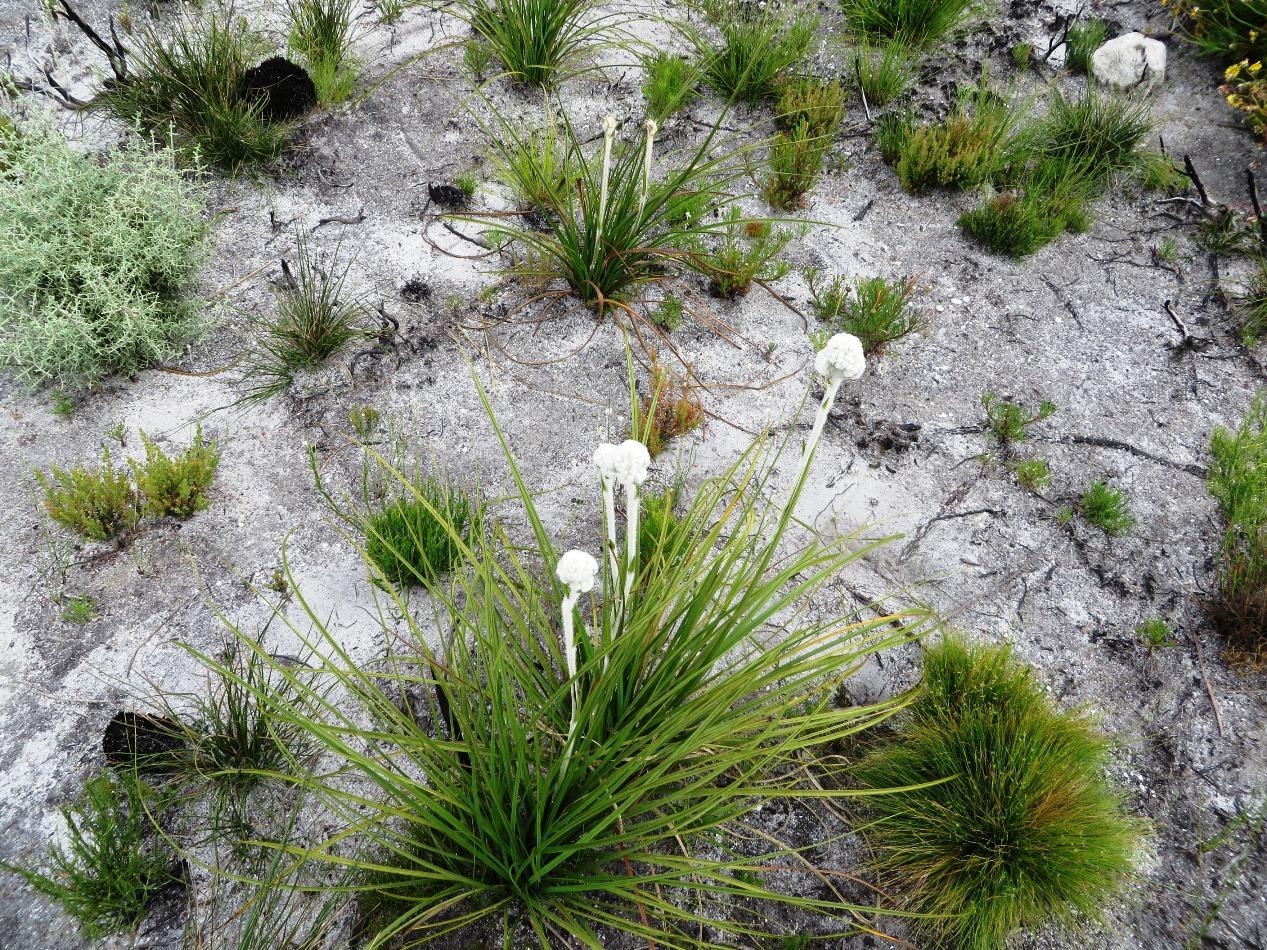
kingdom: Plantae
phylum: Tracheophyta
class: Liliopsida
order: Asparagales
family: Lanariaceae
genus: Lanaria
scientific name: Lanaria lanata
